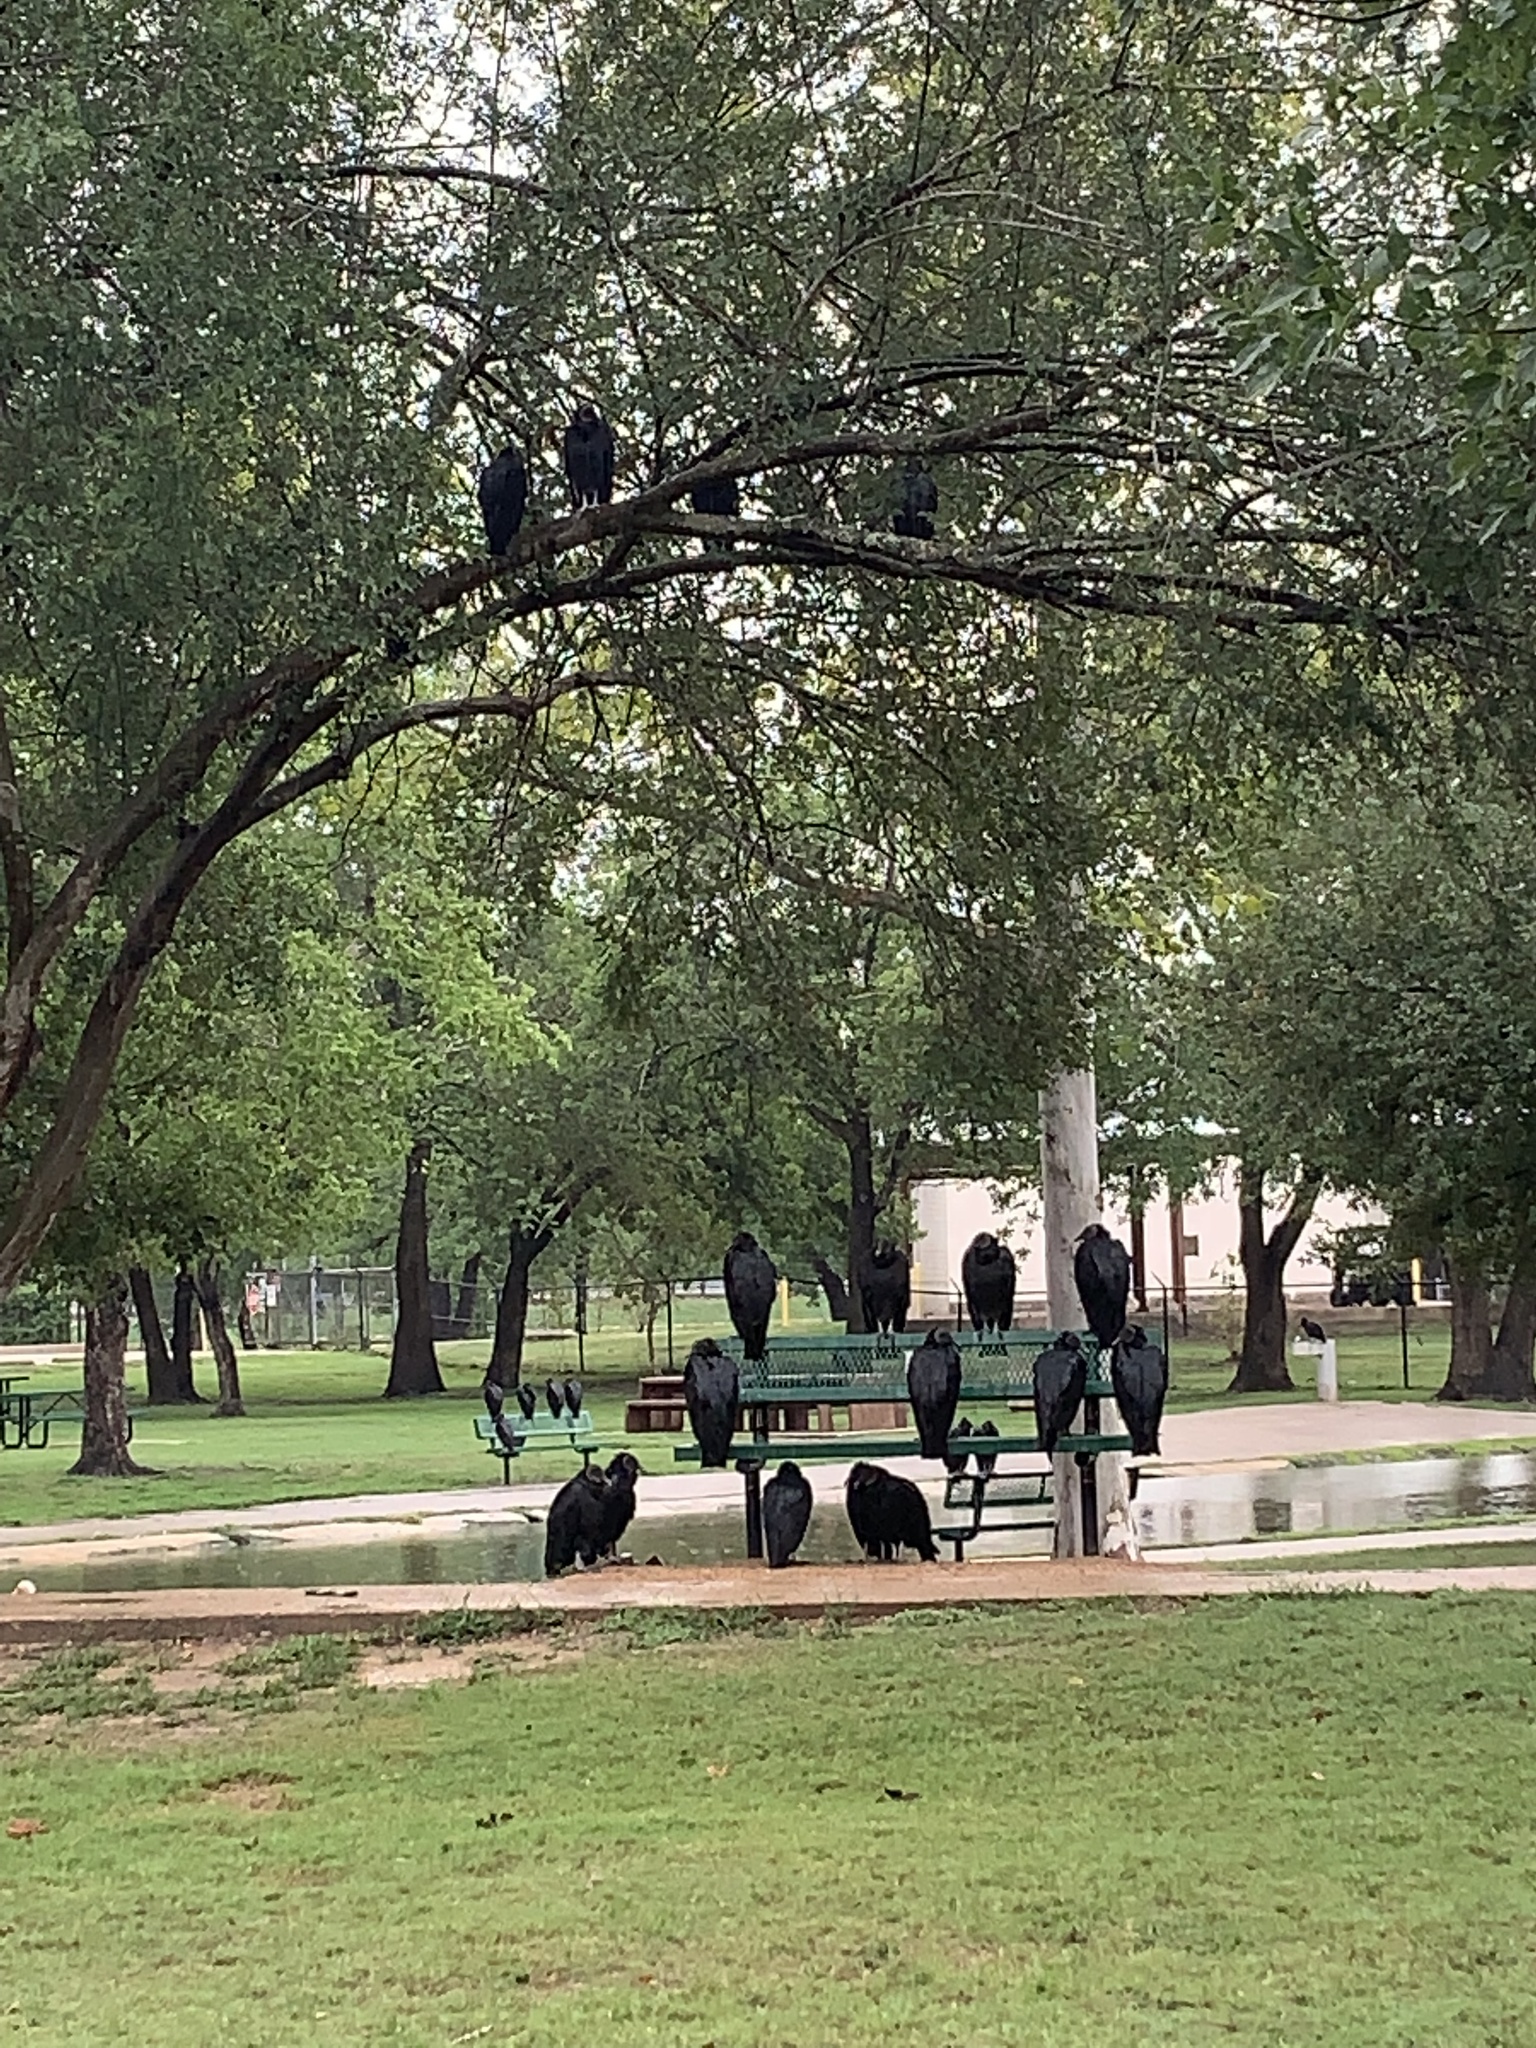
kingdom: Animalia
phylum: Chordata
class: Aves
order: Accipitriformes
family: Cathartidae
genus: Coragyps
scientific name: Coragyps atratus
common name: Black vulture
